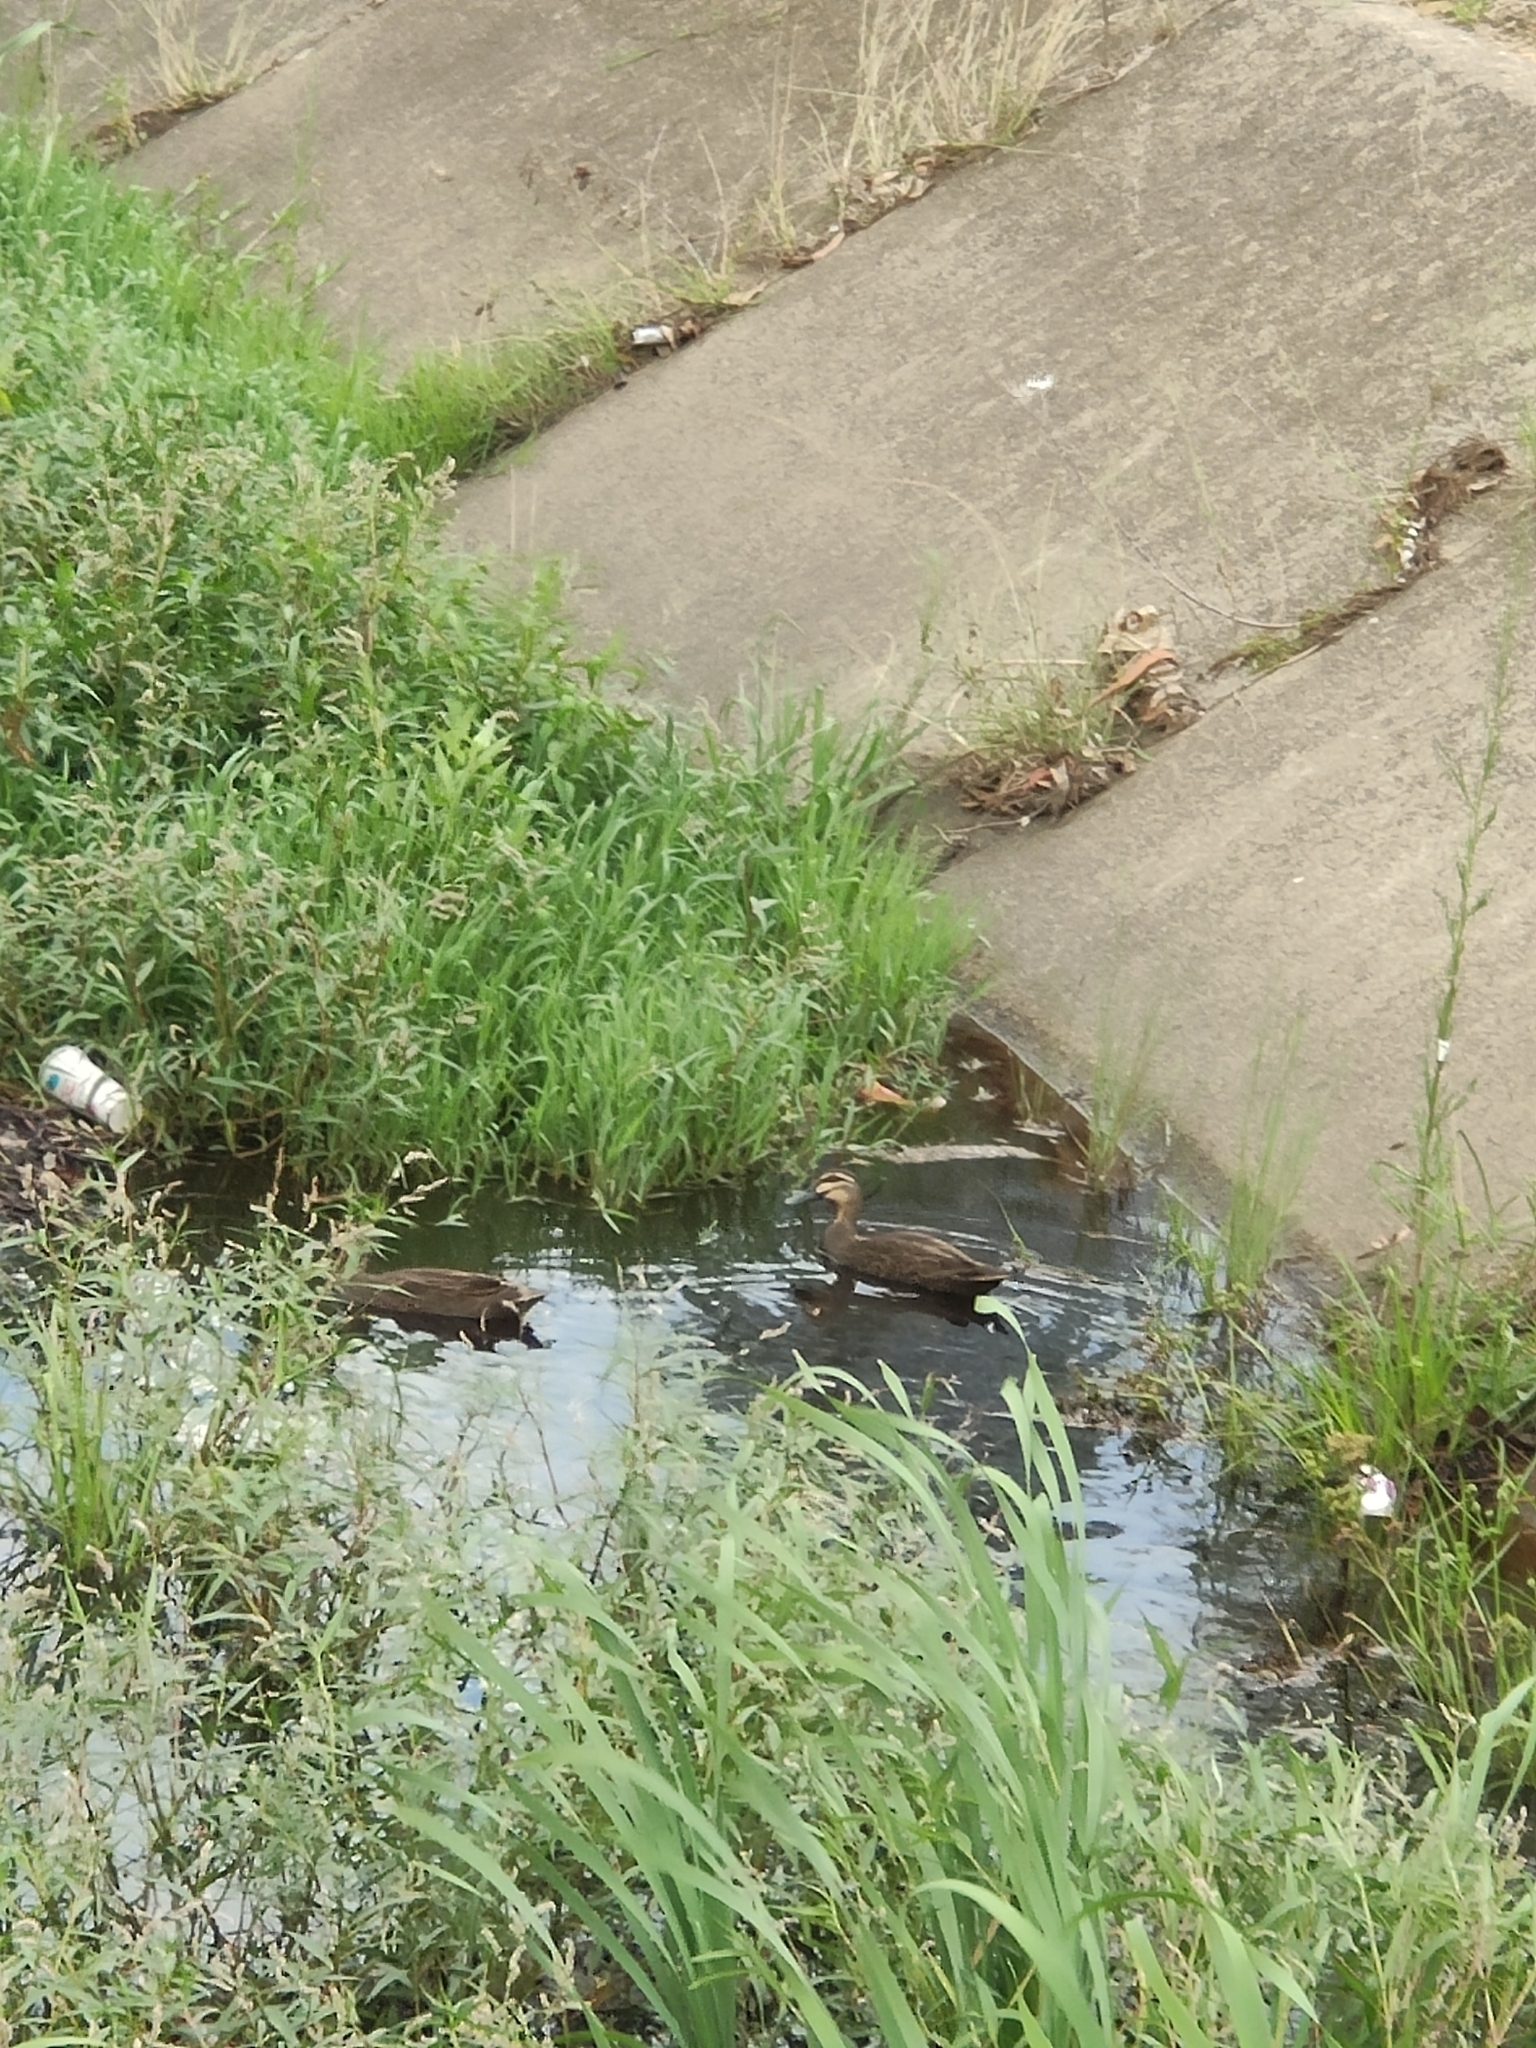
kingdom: Animalia
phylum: Chordata
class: Aves
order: Anseriformes
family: Anatidae
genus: Anas
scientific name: Anas superciliosa
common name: Pacific black duck
